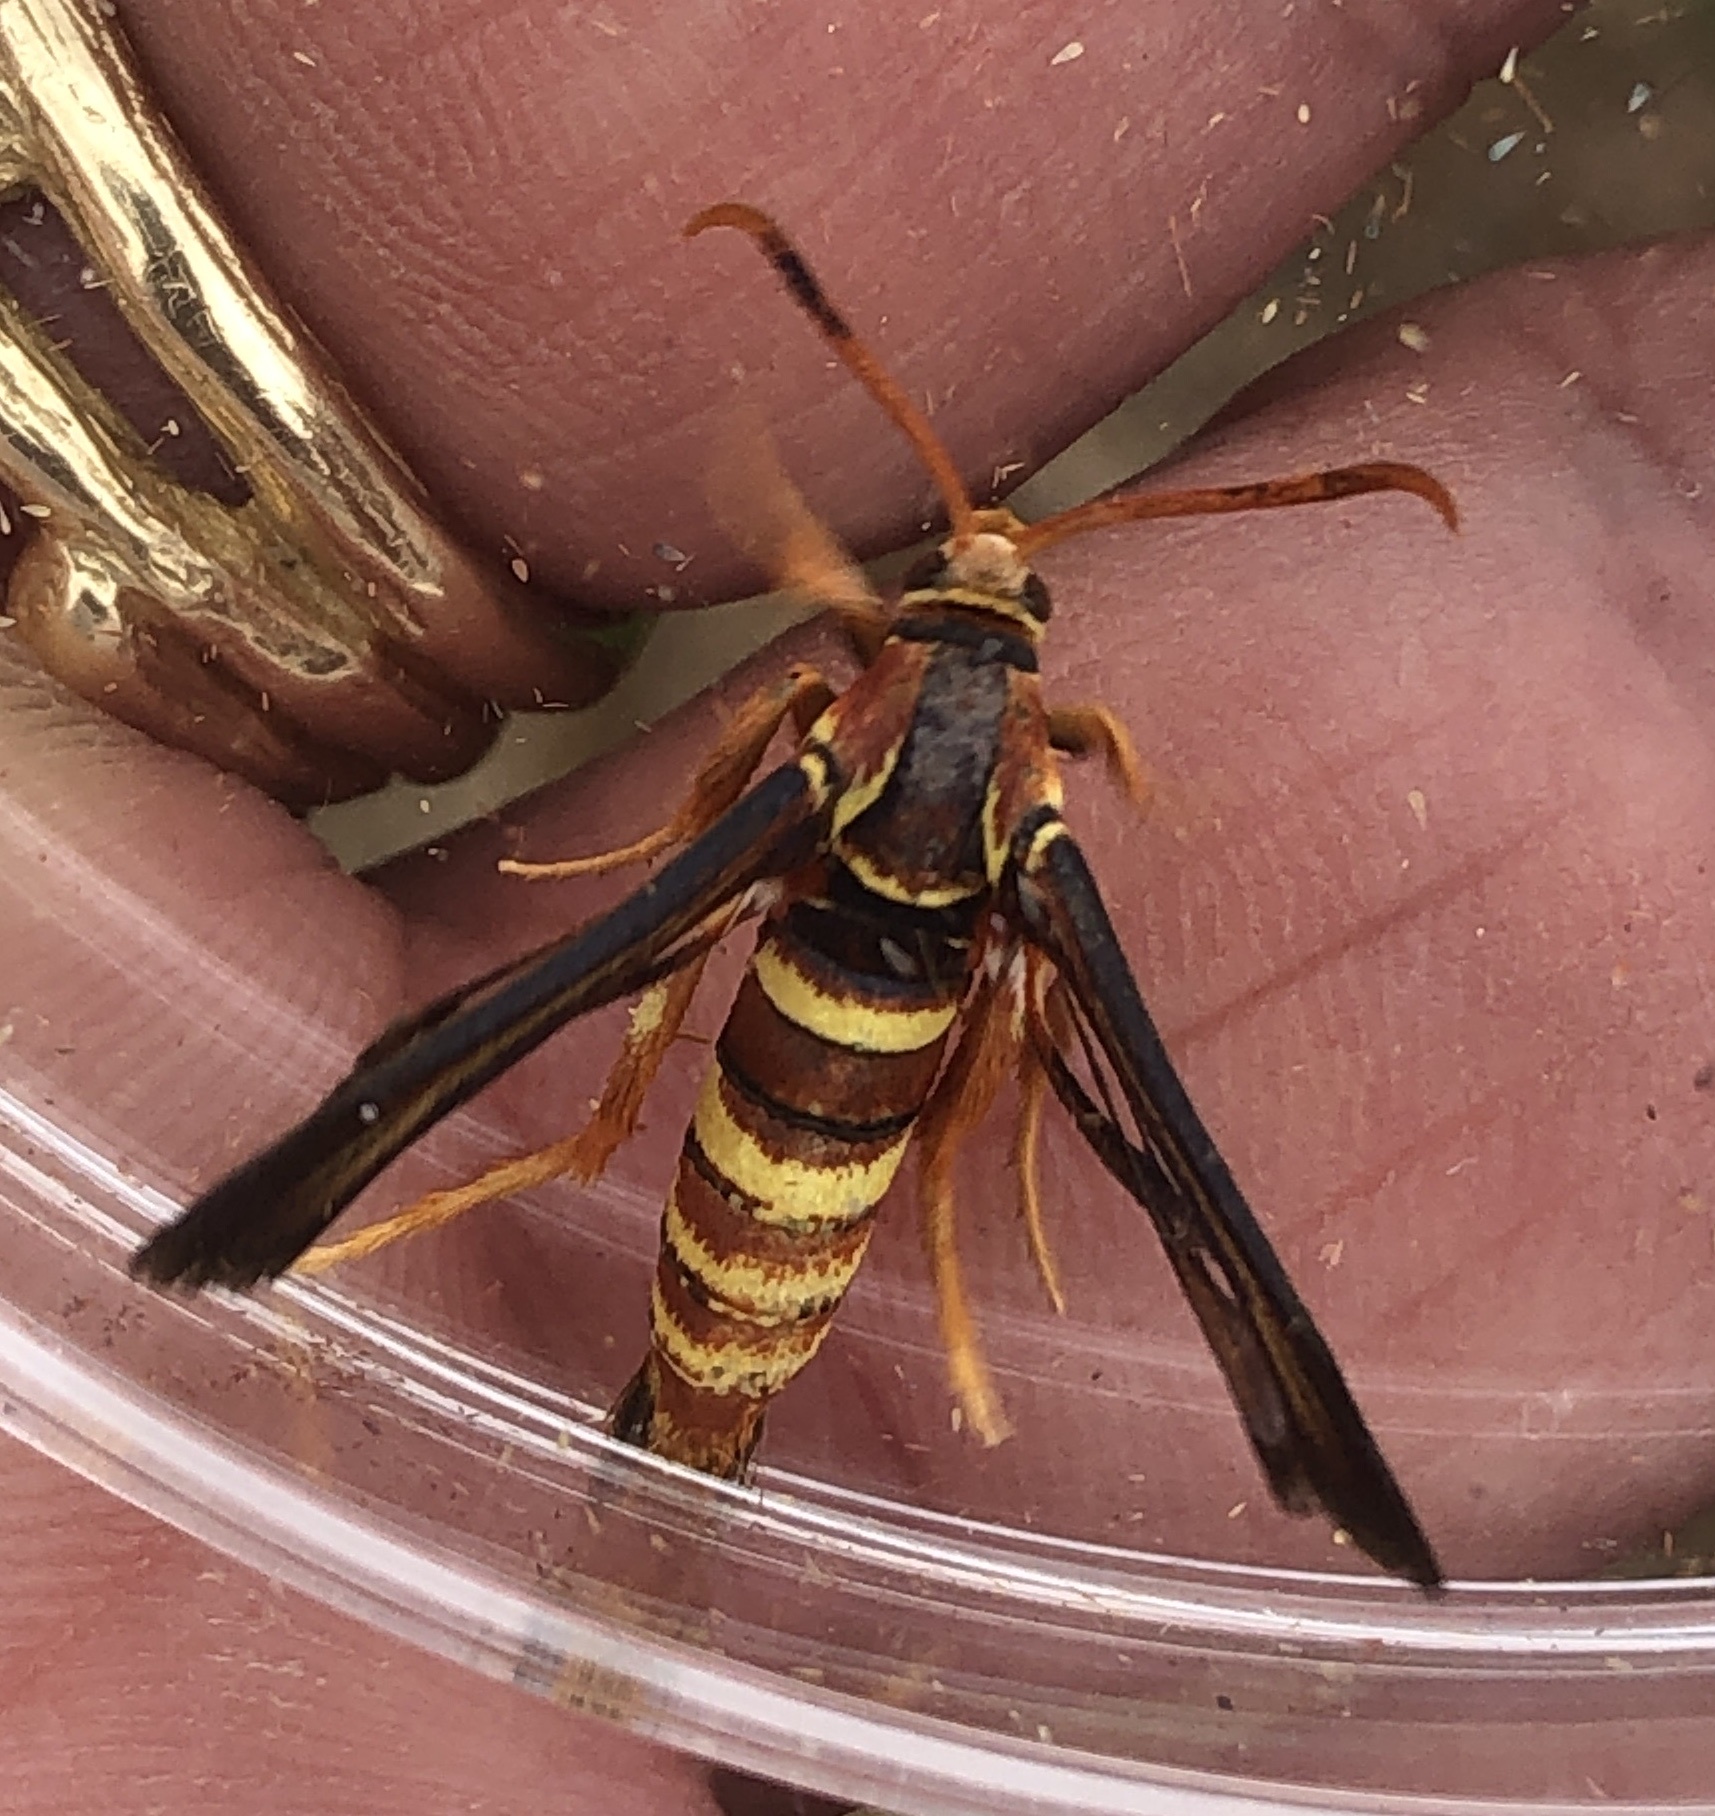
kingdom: Animalia
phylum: Arthropoda
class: Insecta
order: Lepidoptera
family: Sesiidae
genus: Vitacea
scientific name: Vitacea admirandus
